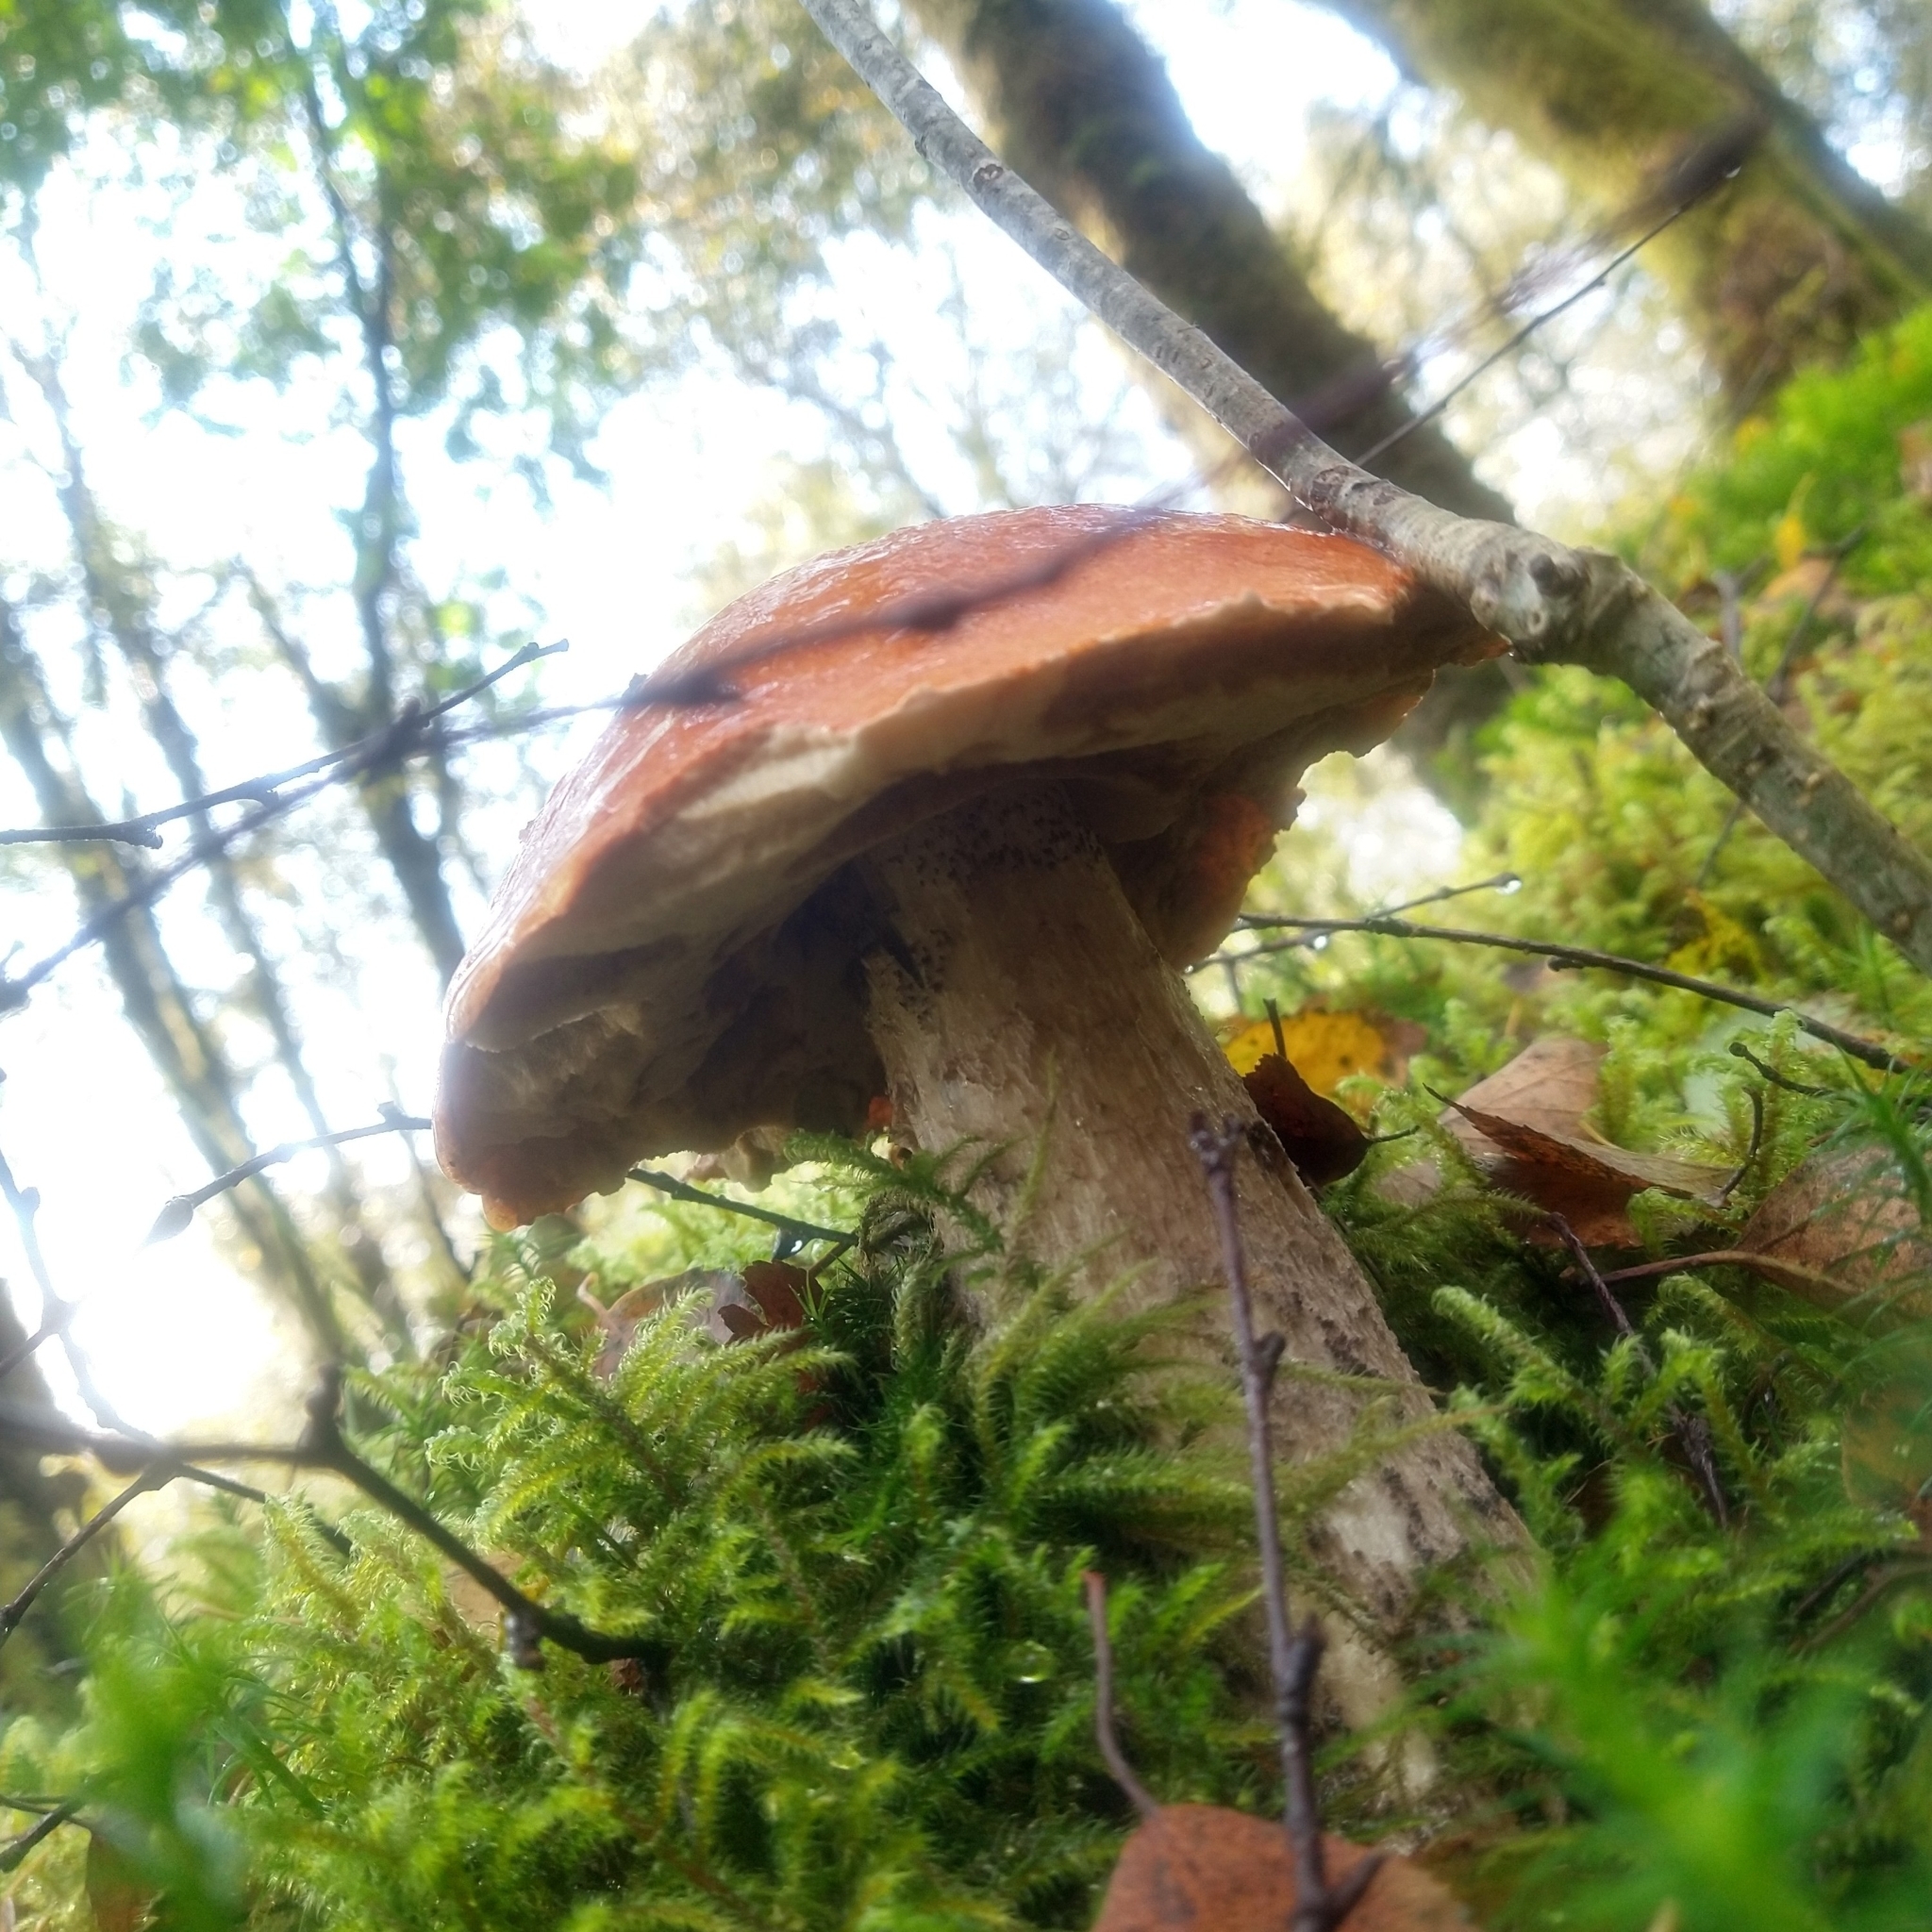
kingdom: Fungi
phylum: Basidiomycota
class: Agaricomycetes
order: Boletales
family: Boletaceae
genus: Leccinum
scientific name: Leccinum versipelle
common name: Orange birch bolete
